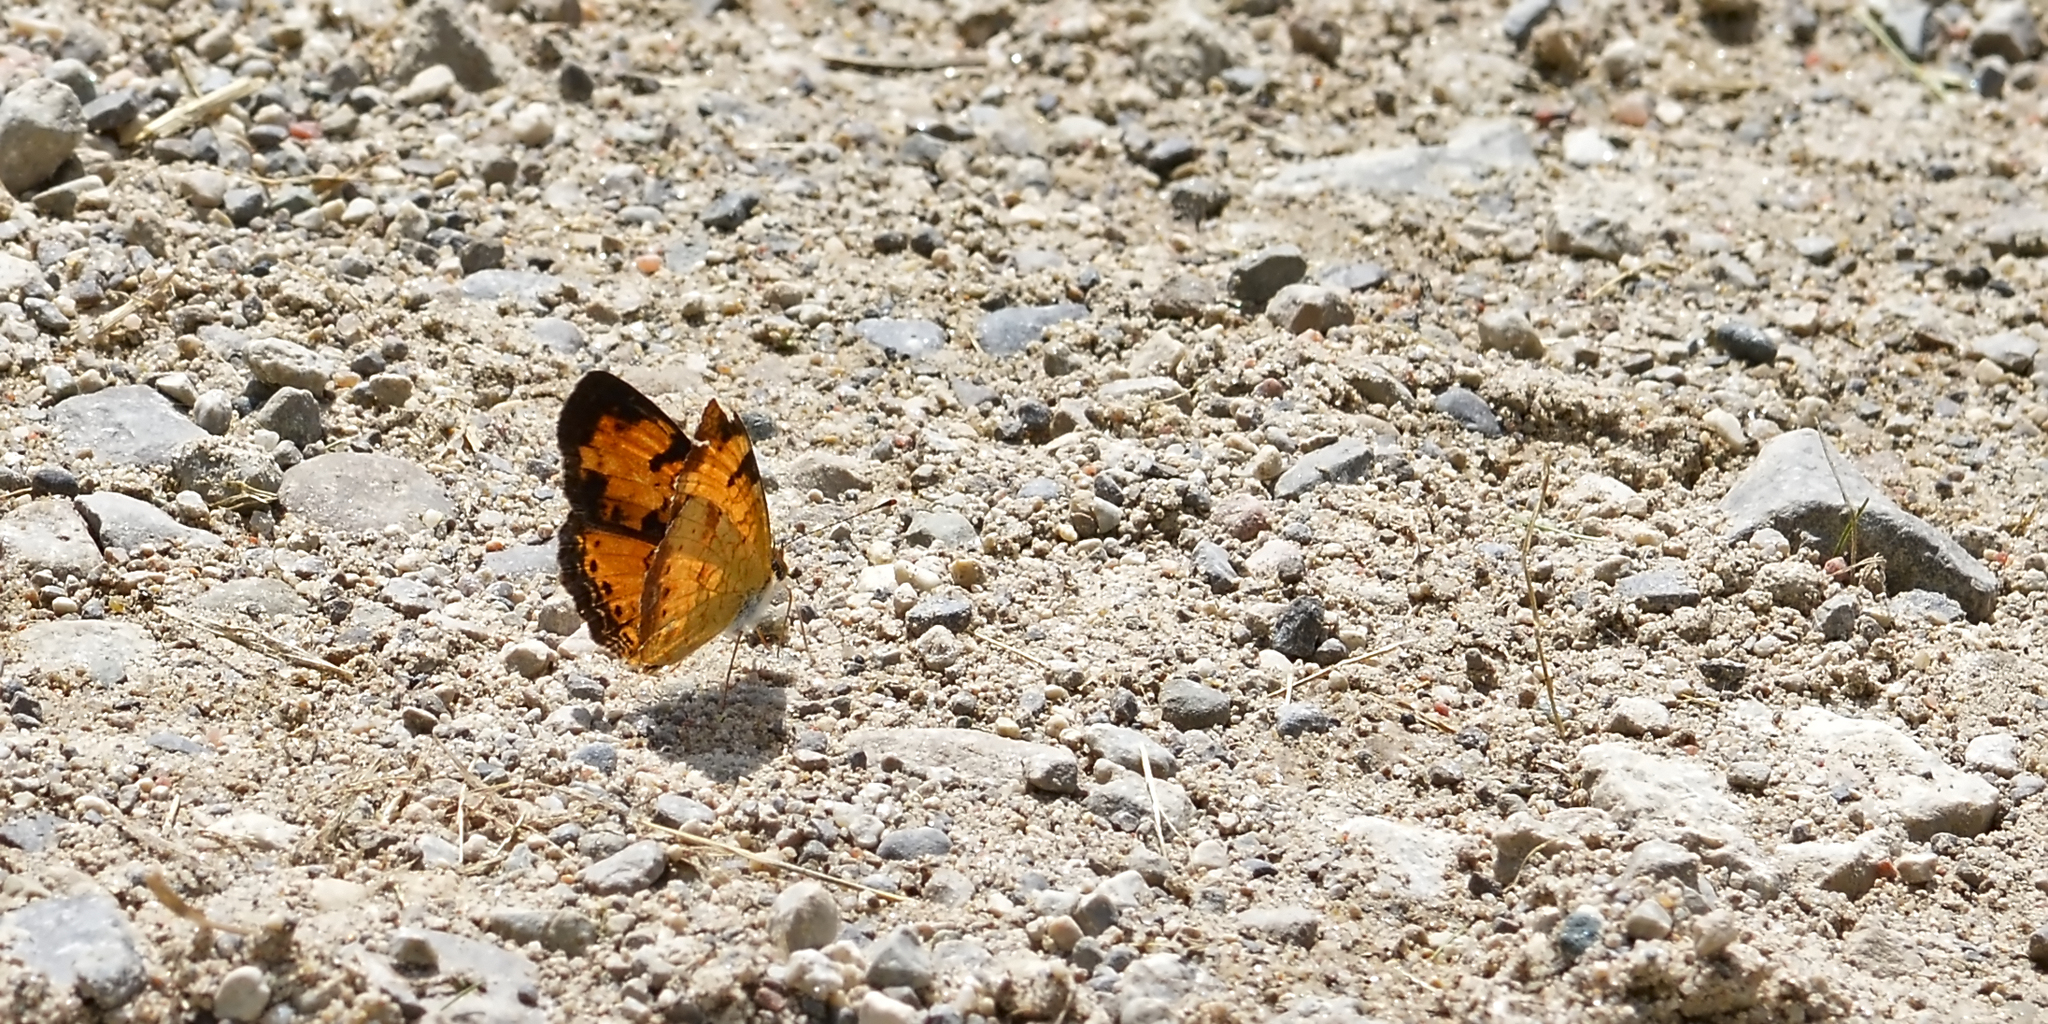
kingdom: Animalia
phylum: Arthropoda
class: Insecta
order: Lepidoptera
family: Nymphalidae
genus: Phyciodes
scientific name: Phyciodes tharos
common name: Pearl crescent
